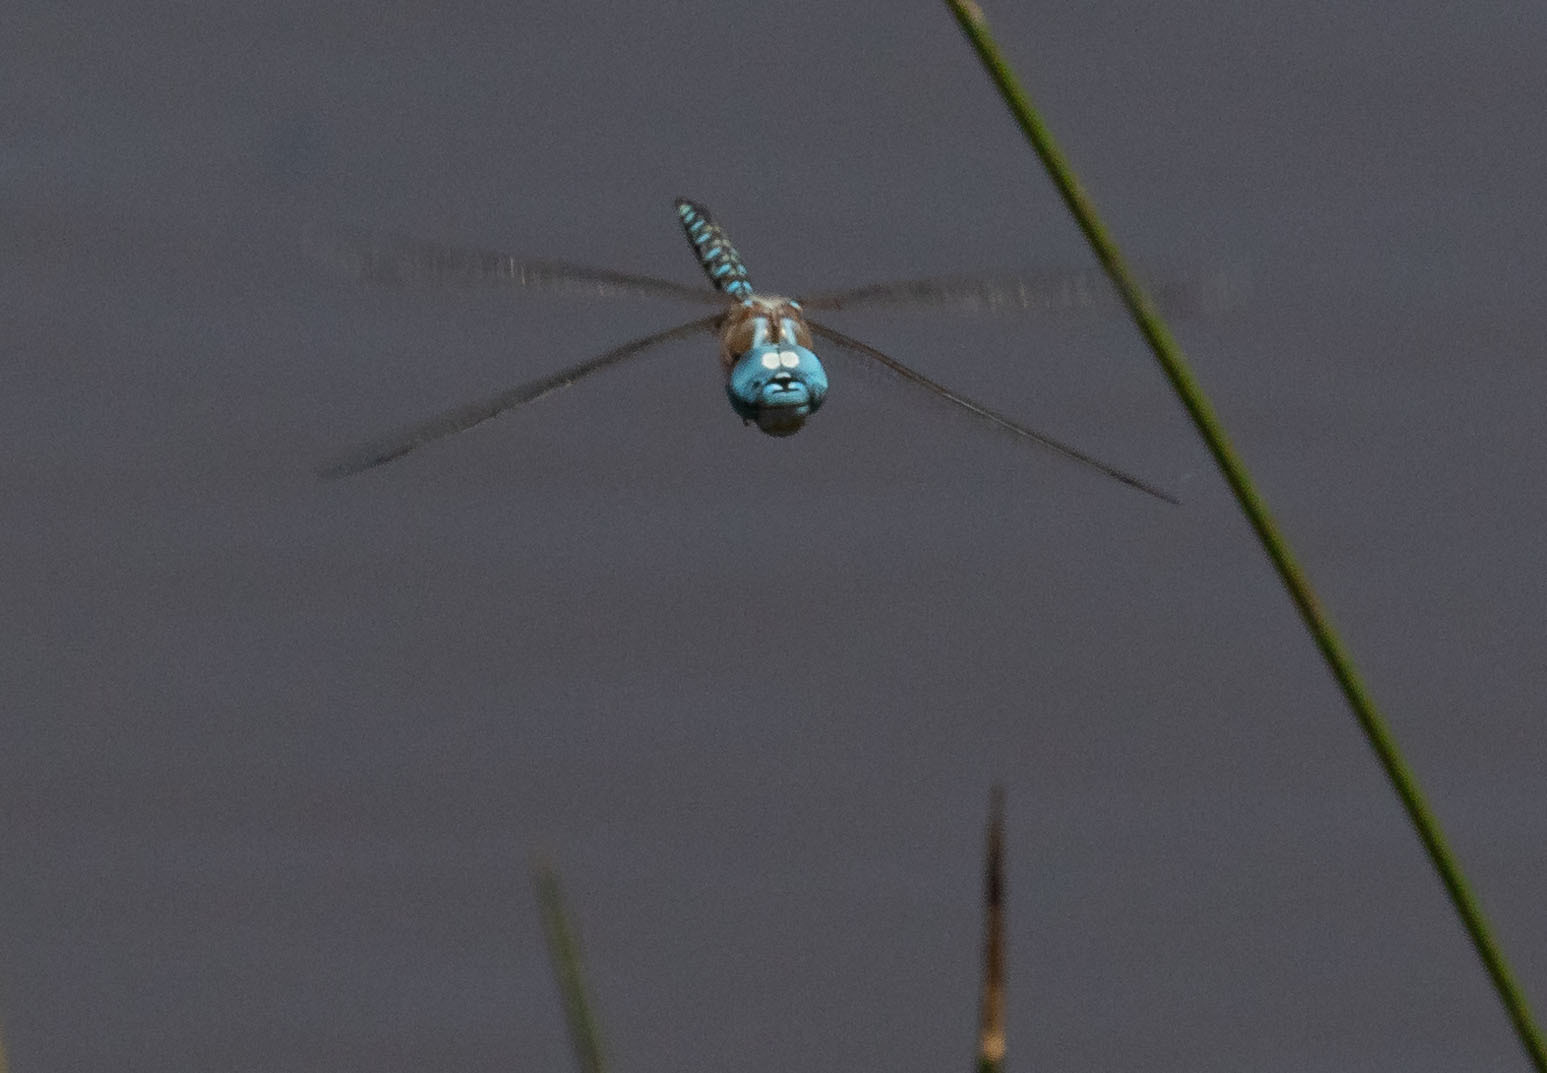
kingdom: Animalia
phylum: Arthropoda
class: Insecta
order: Odonata
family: Aeshnidae
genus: Rhionaeschna
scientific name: Rhionaeschna multicolor
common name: Blue-eyed darner
